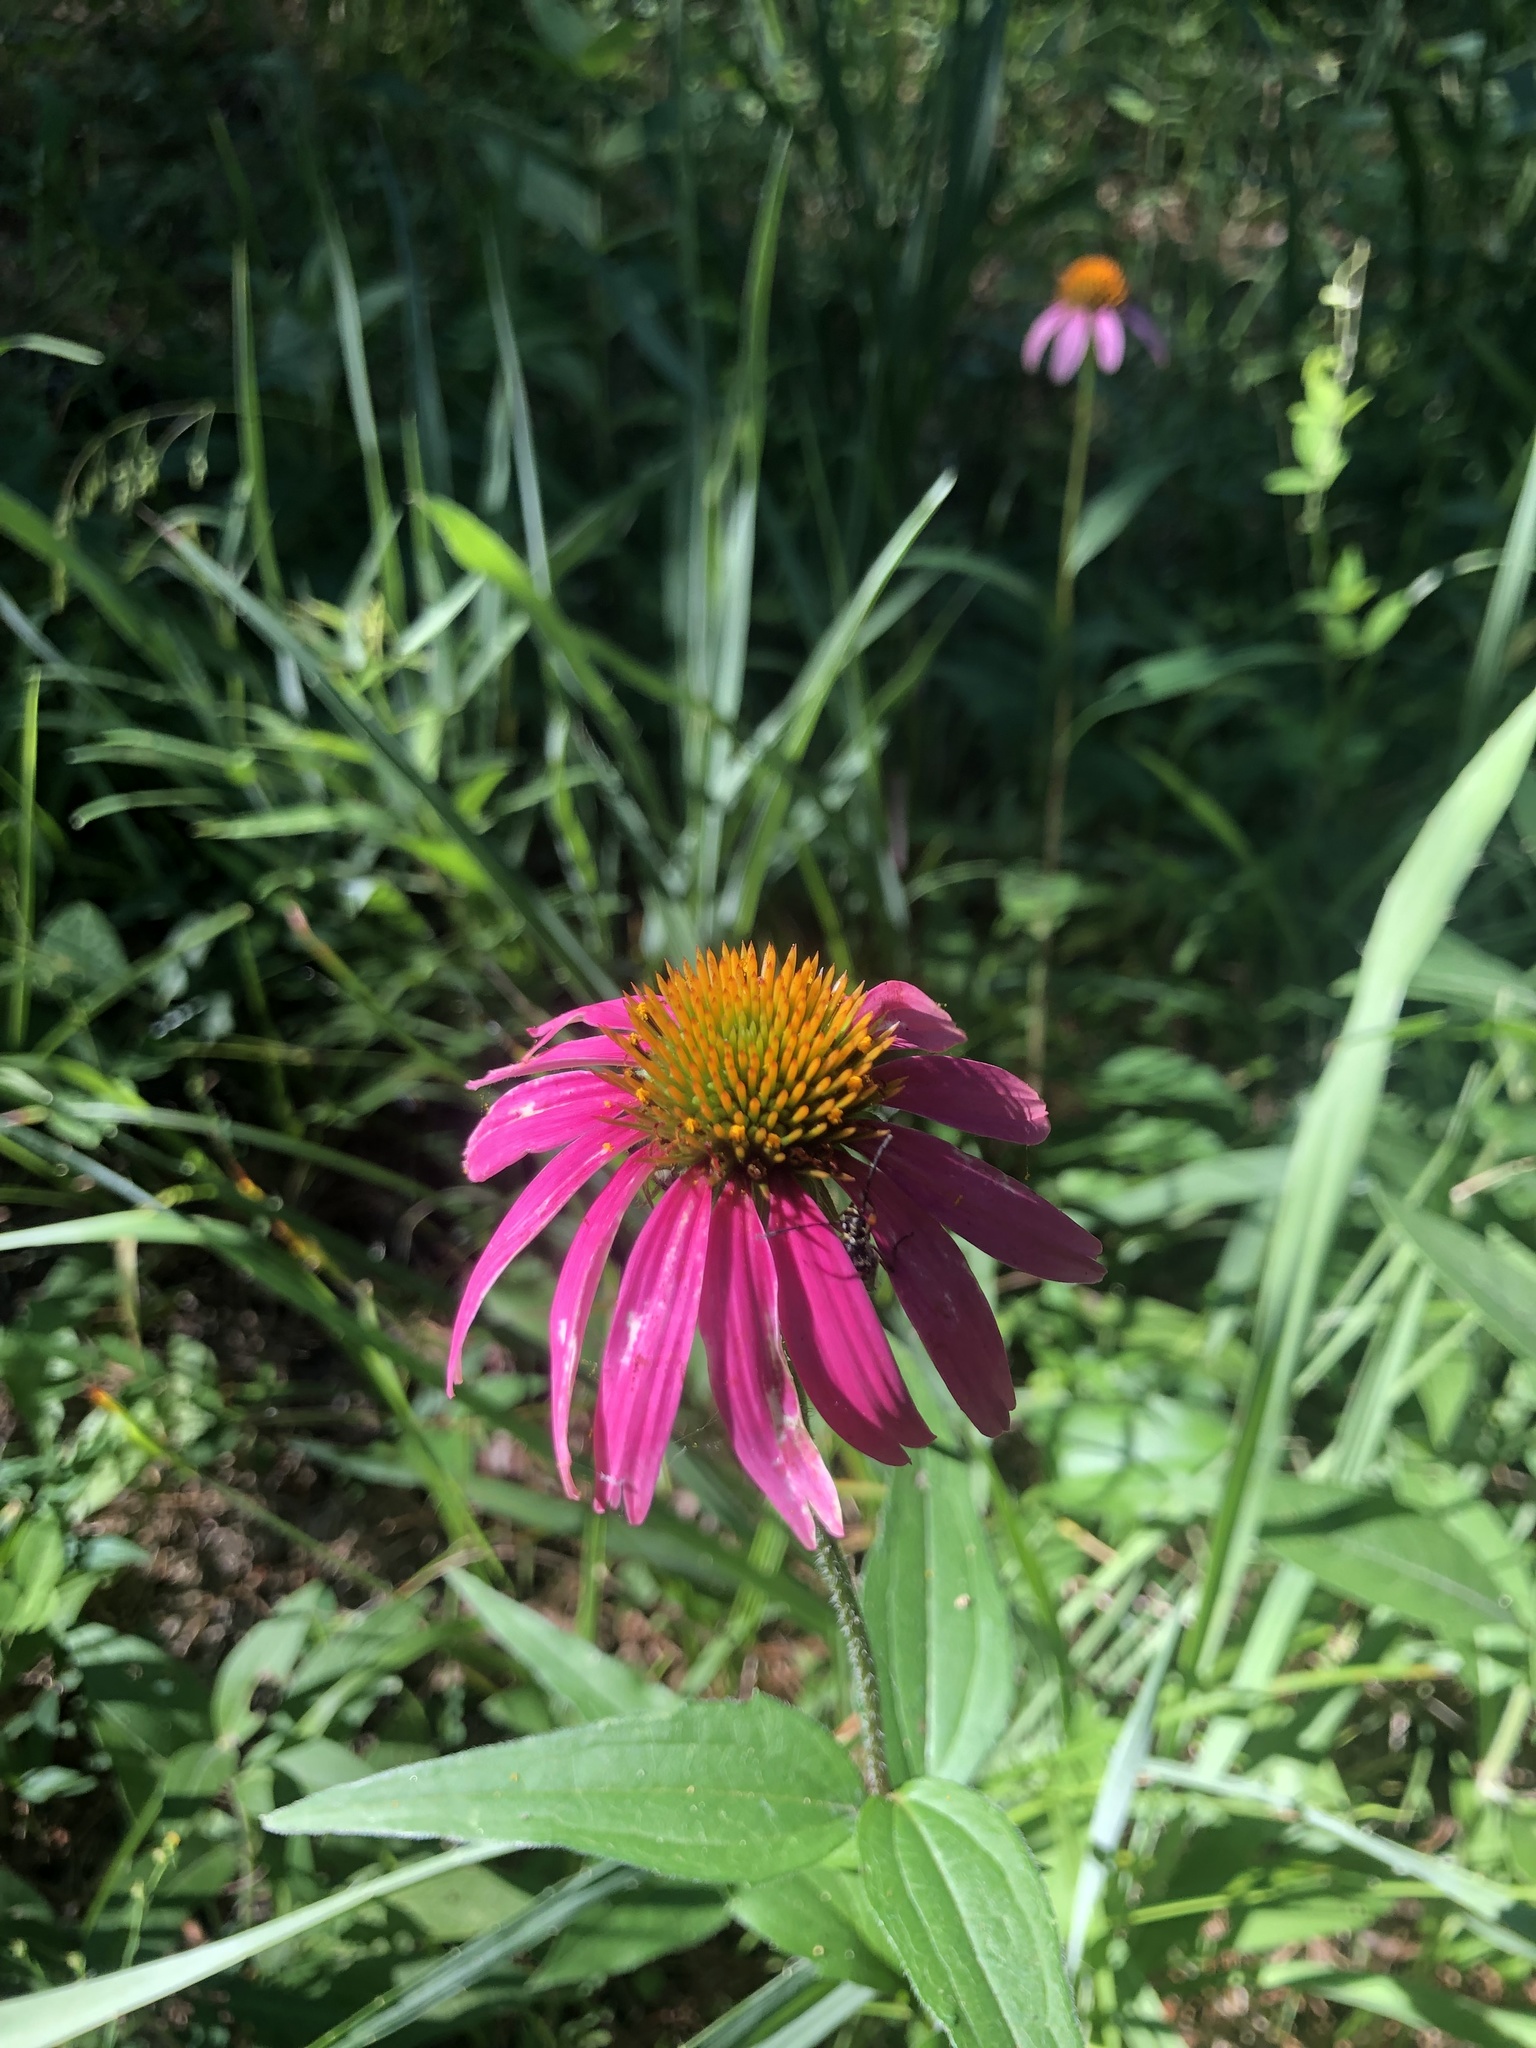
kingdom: Plantae
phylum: Tracheophyta
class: Magnoliopsida
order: Asterales
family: Asteraceae
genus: Echinacea
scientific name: Echinacea purpurea
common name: Broad-leaved purple coneflower
